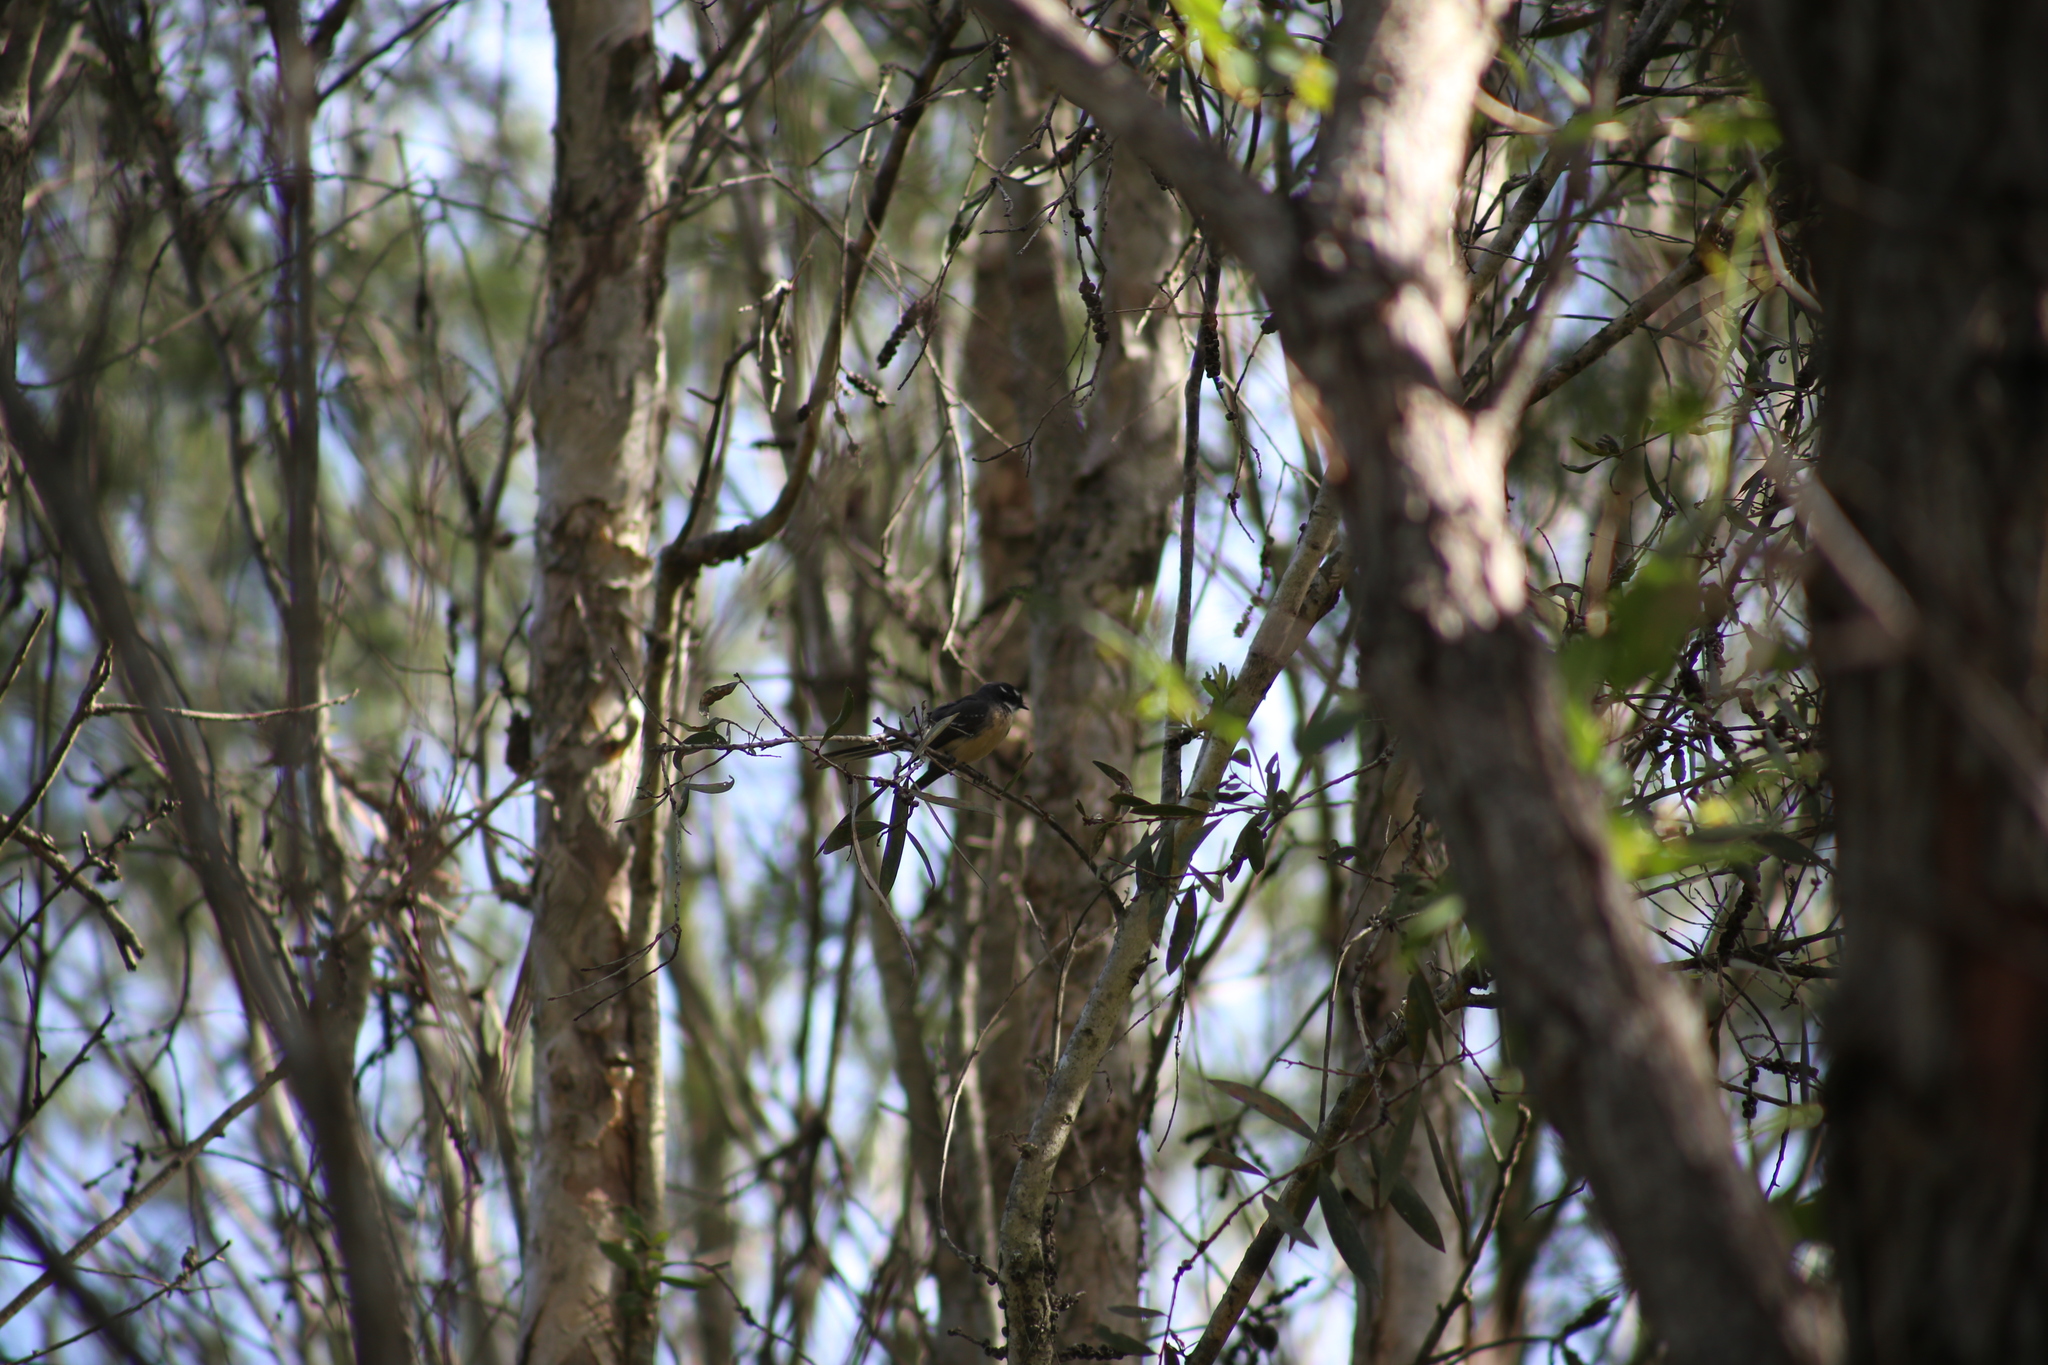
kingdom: Animalia
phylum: Chordata
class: Aves
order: Passeriformes
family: Rhipiduridae
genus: Rhipidura
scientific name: Rhipidura albiscapa
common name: Grey fantail
